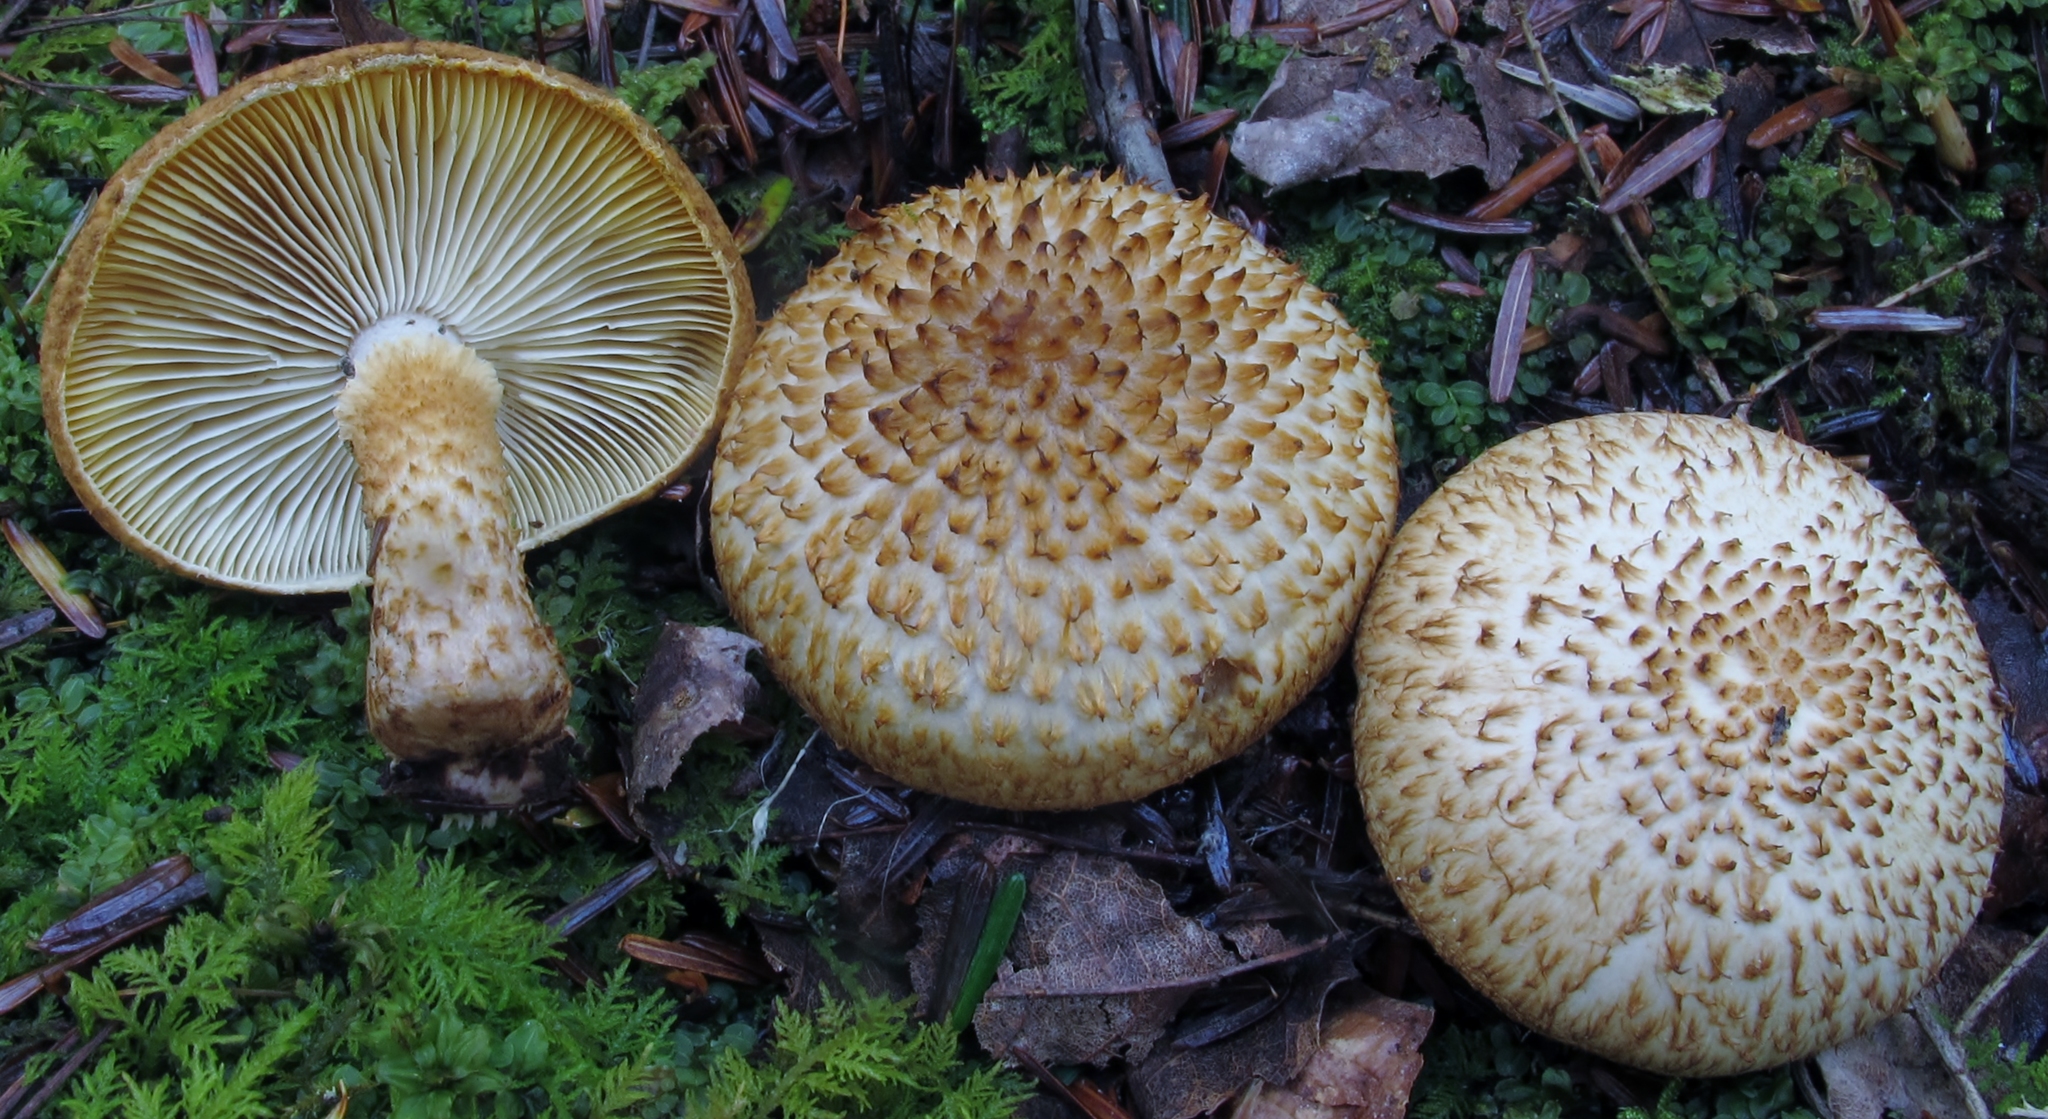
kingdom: Fungi
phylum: Basidiomycota
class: Agaricomycetes
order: Agaricales
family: Agaricaceae
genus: Leucopholiota
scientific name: Leucopholiota decorosa
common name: Decorated pholiota
